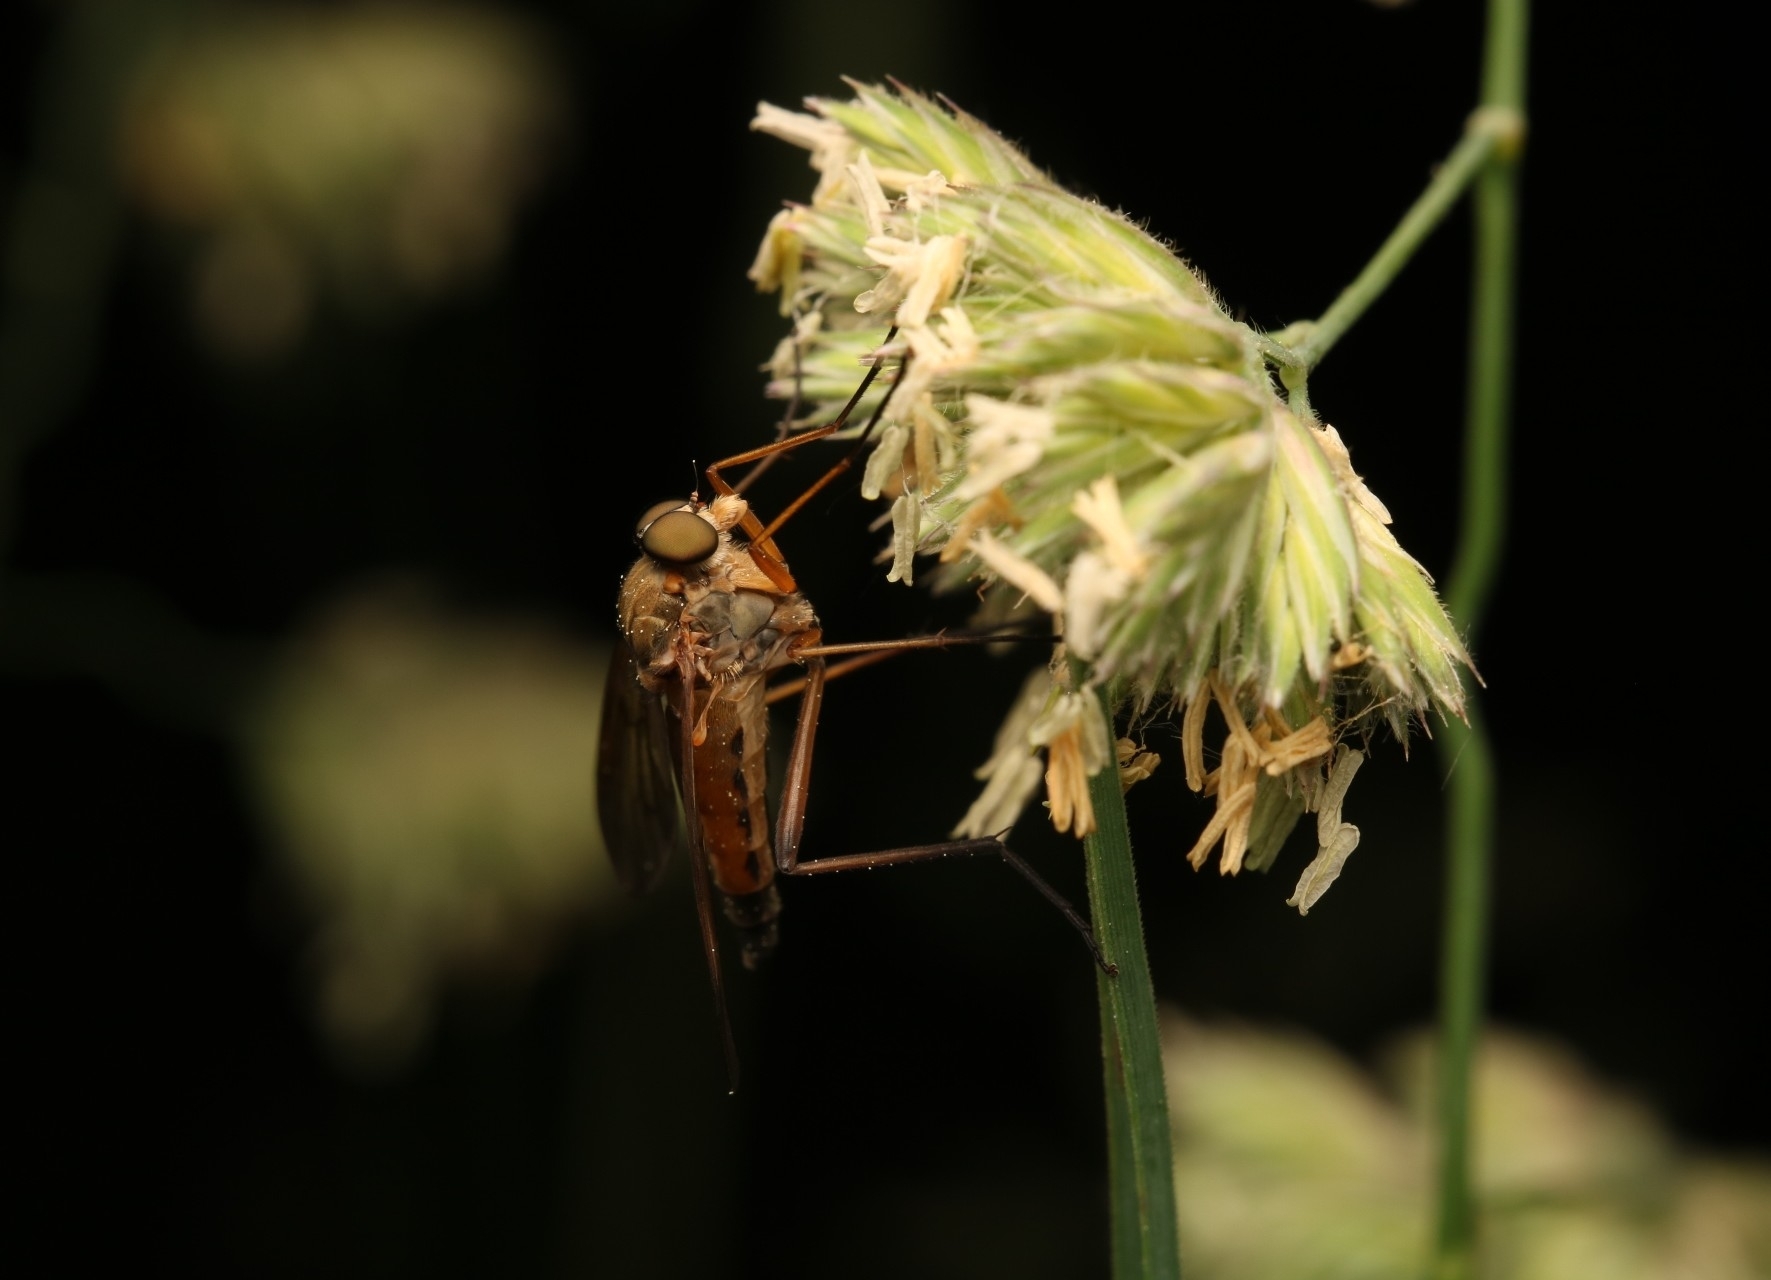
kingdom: Animalia
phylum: Arthropoda
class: Insecta
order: Diptera
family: Rhagionidae
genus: Rhagio
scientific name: Rhagio tringaria
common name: Marsh snipefly
